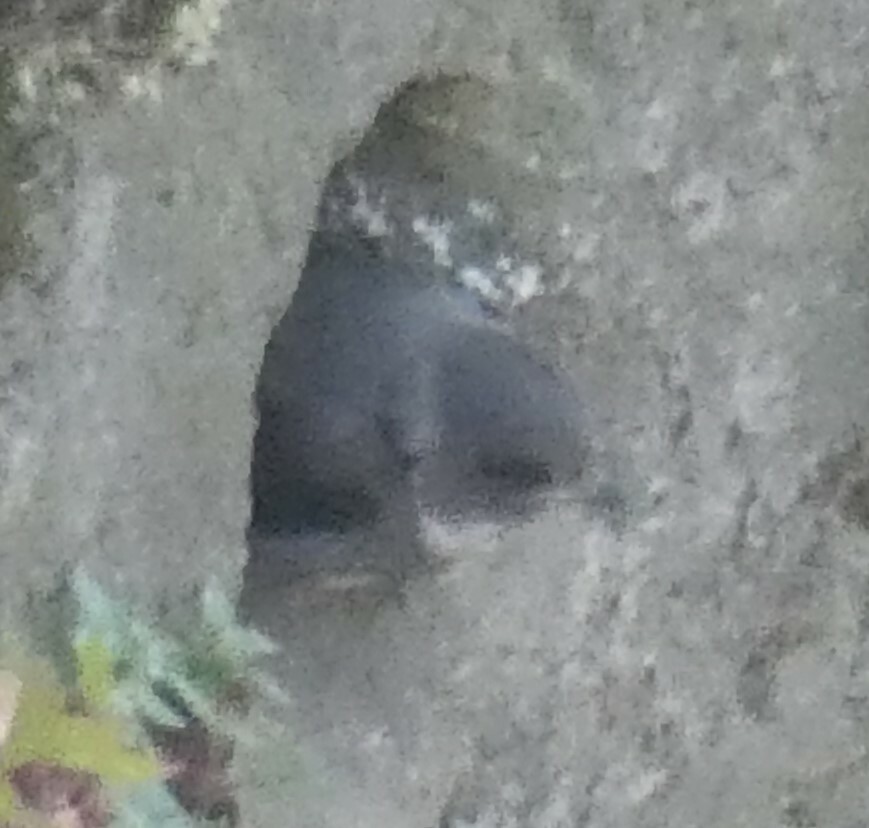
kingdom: Animalia
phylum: Chordata
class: Aves
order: Passeriformes
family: Hirundinidae
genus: Riparia
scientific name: Riparia riparia
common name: Sand martin
